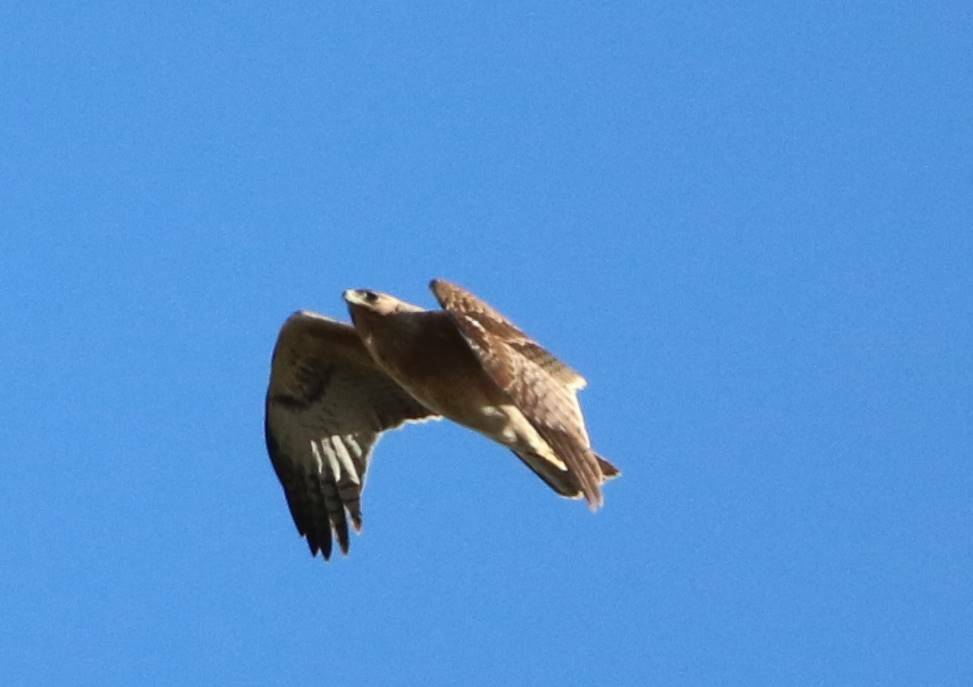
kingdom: Animalia
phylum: Chordata
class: Aves
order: Accipitriformes
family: Accipitridae
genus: Aquila
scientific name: Aquila fasciata
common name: Bonelli's eagle
